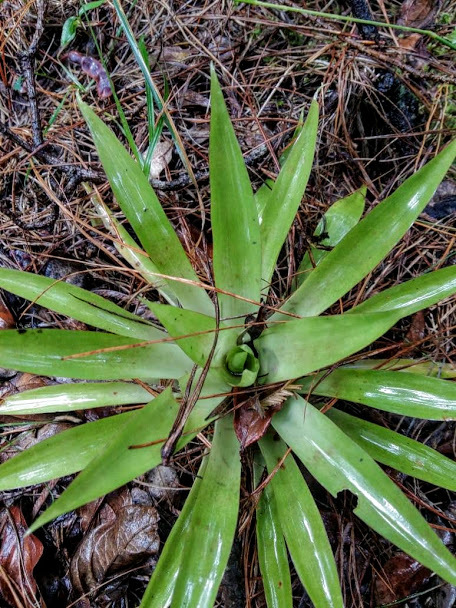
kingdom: Plantae
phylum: Tracheophyta
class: Liliopsida
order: Poales
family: Bromeliaceae
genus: Tillandsia
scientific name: Tillandsia biflora
